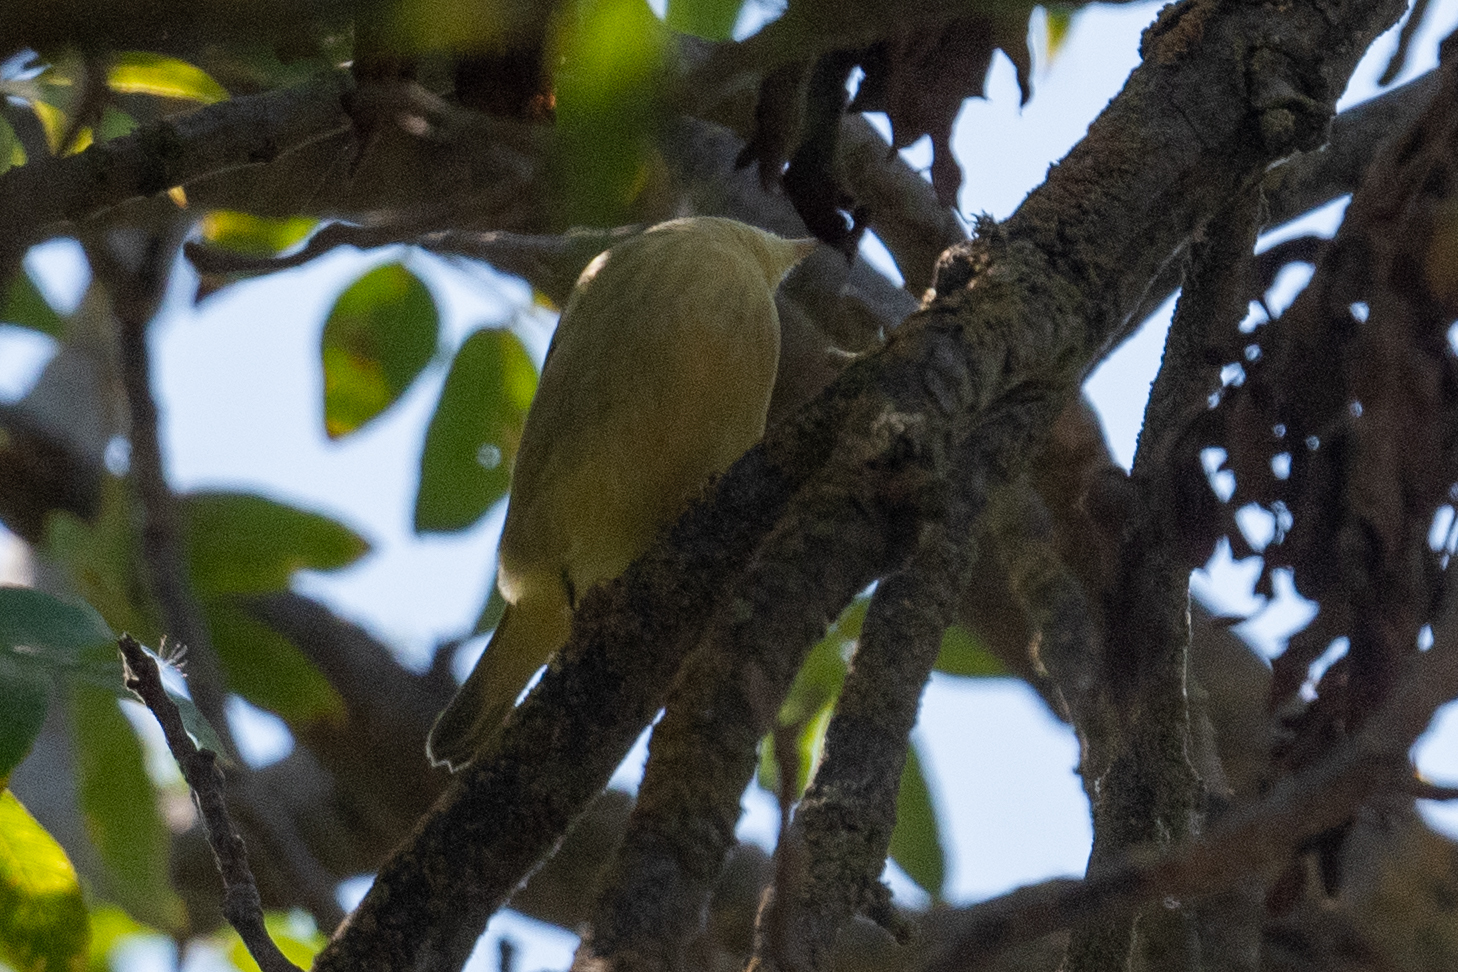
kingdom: Animalia
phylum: Chordata
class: Aves
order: Passeriformes
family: Parulidae
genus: Setophaga
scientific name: Setophaga petechia
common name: Yellow warbler
